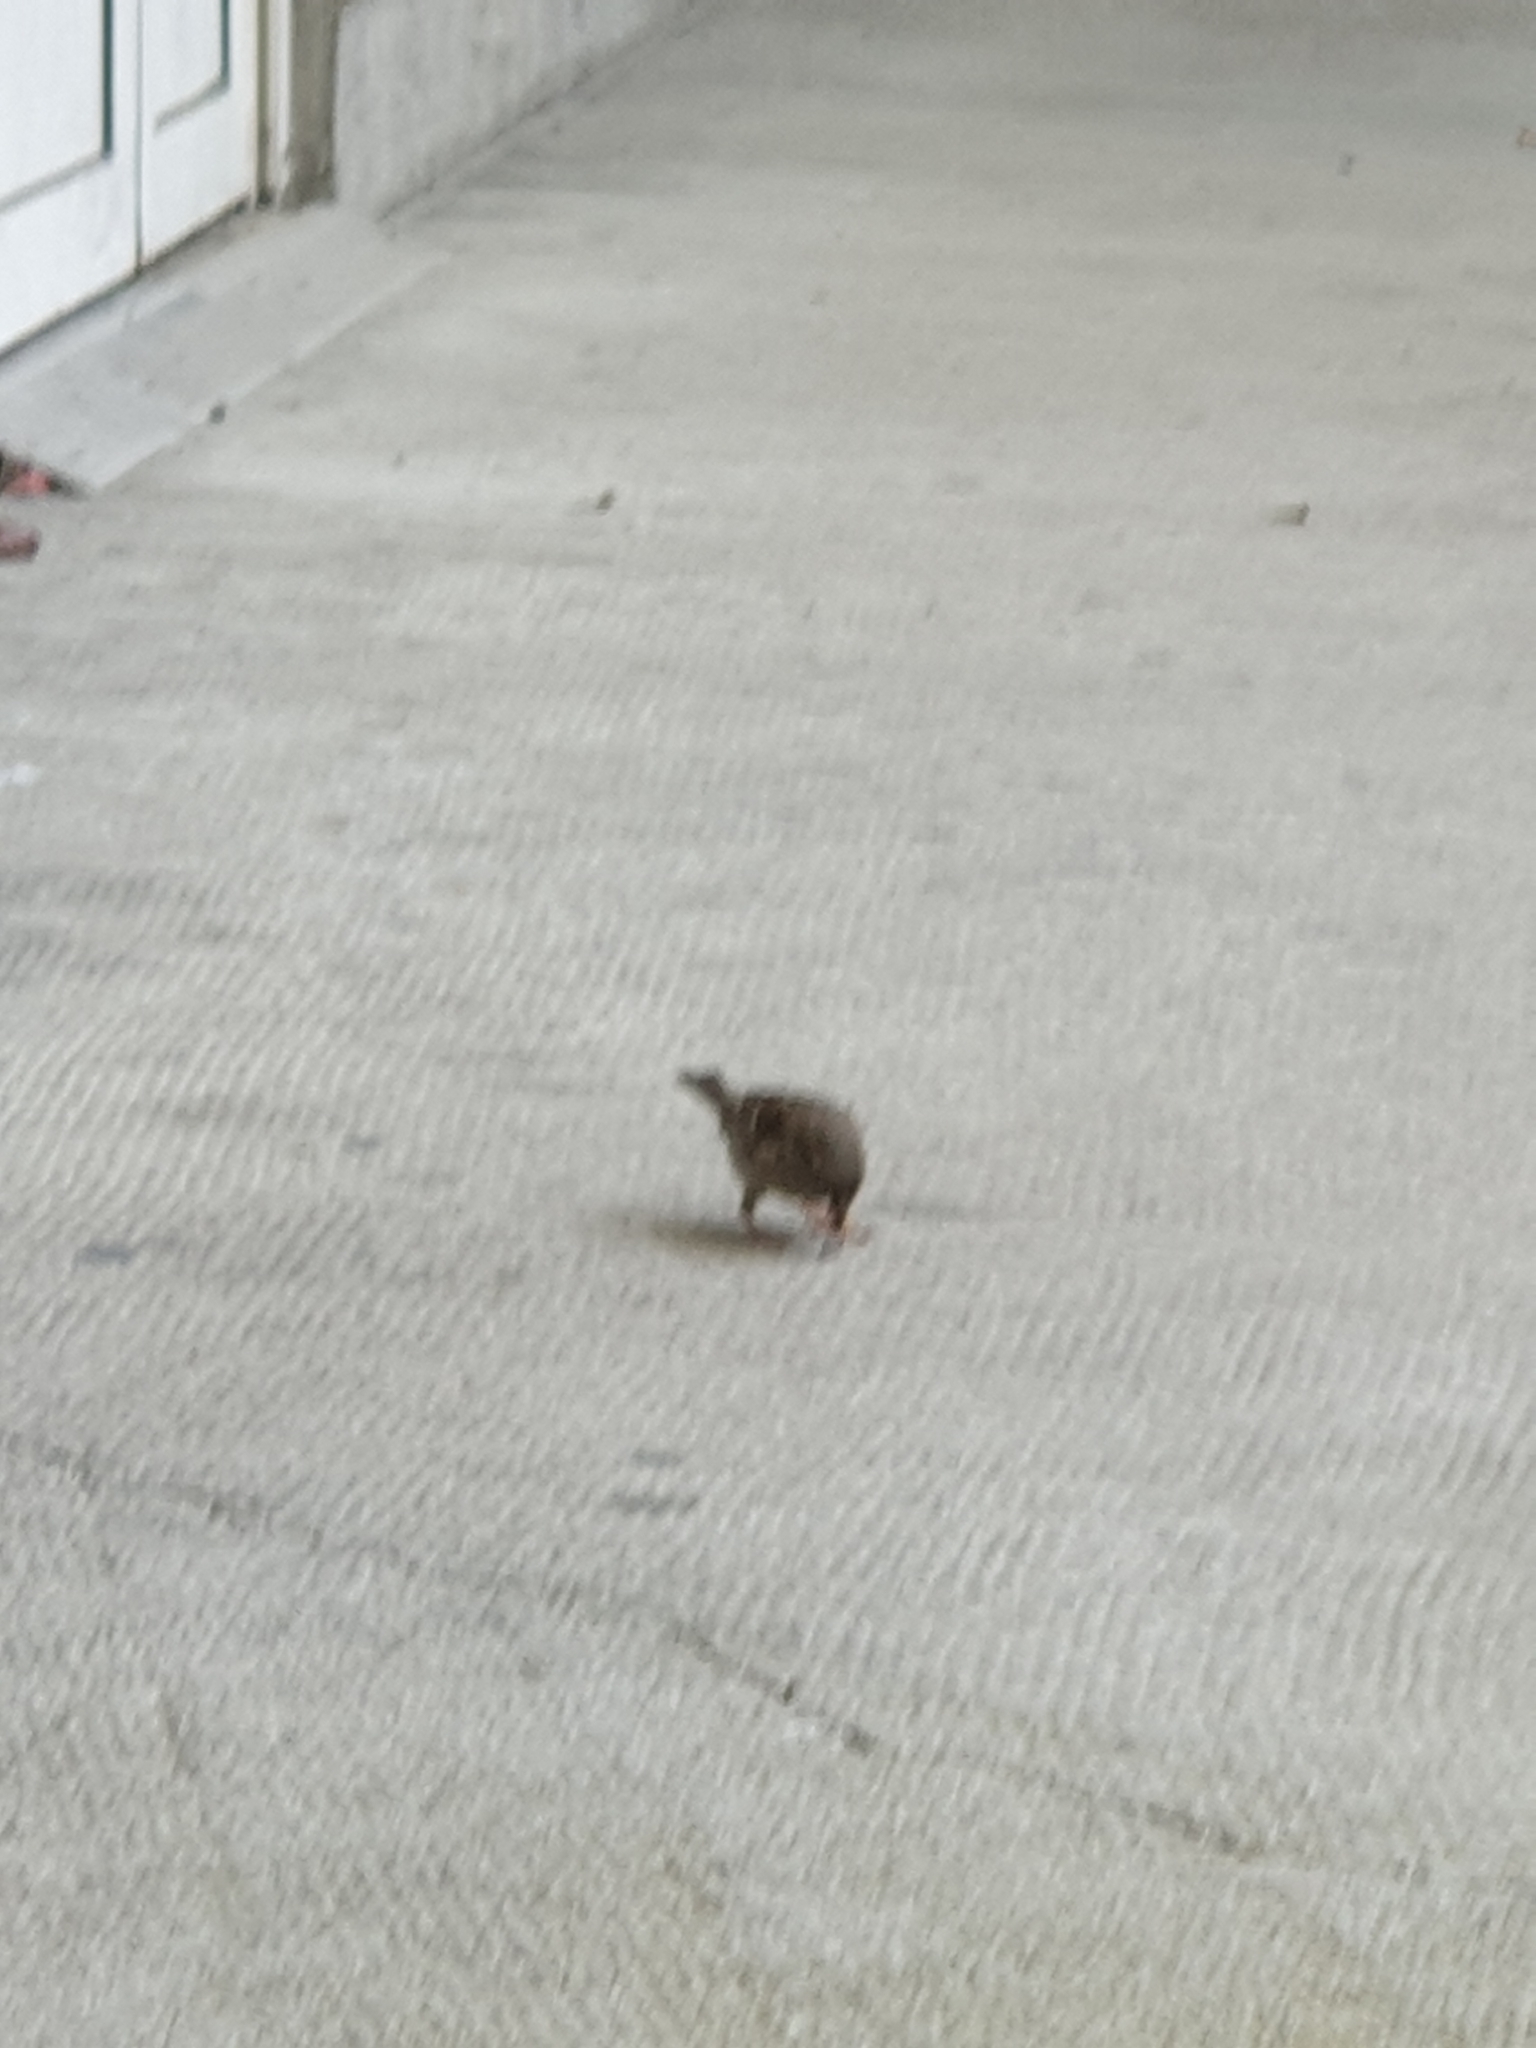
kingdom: Animalia
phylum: Chordata
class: Aves
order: Passeriformes
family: Passeridae
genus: Passer
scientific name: Passer domesticus
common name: House sparrow
